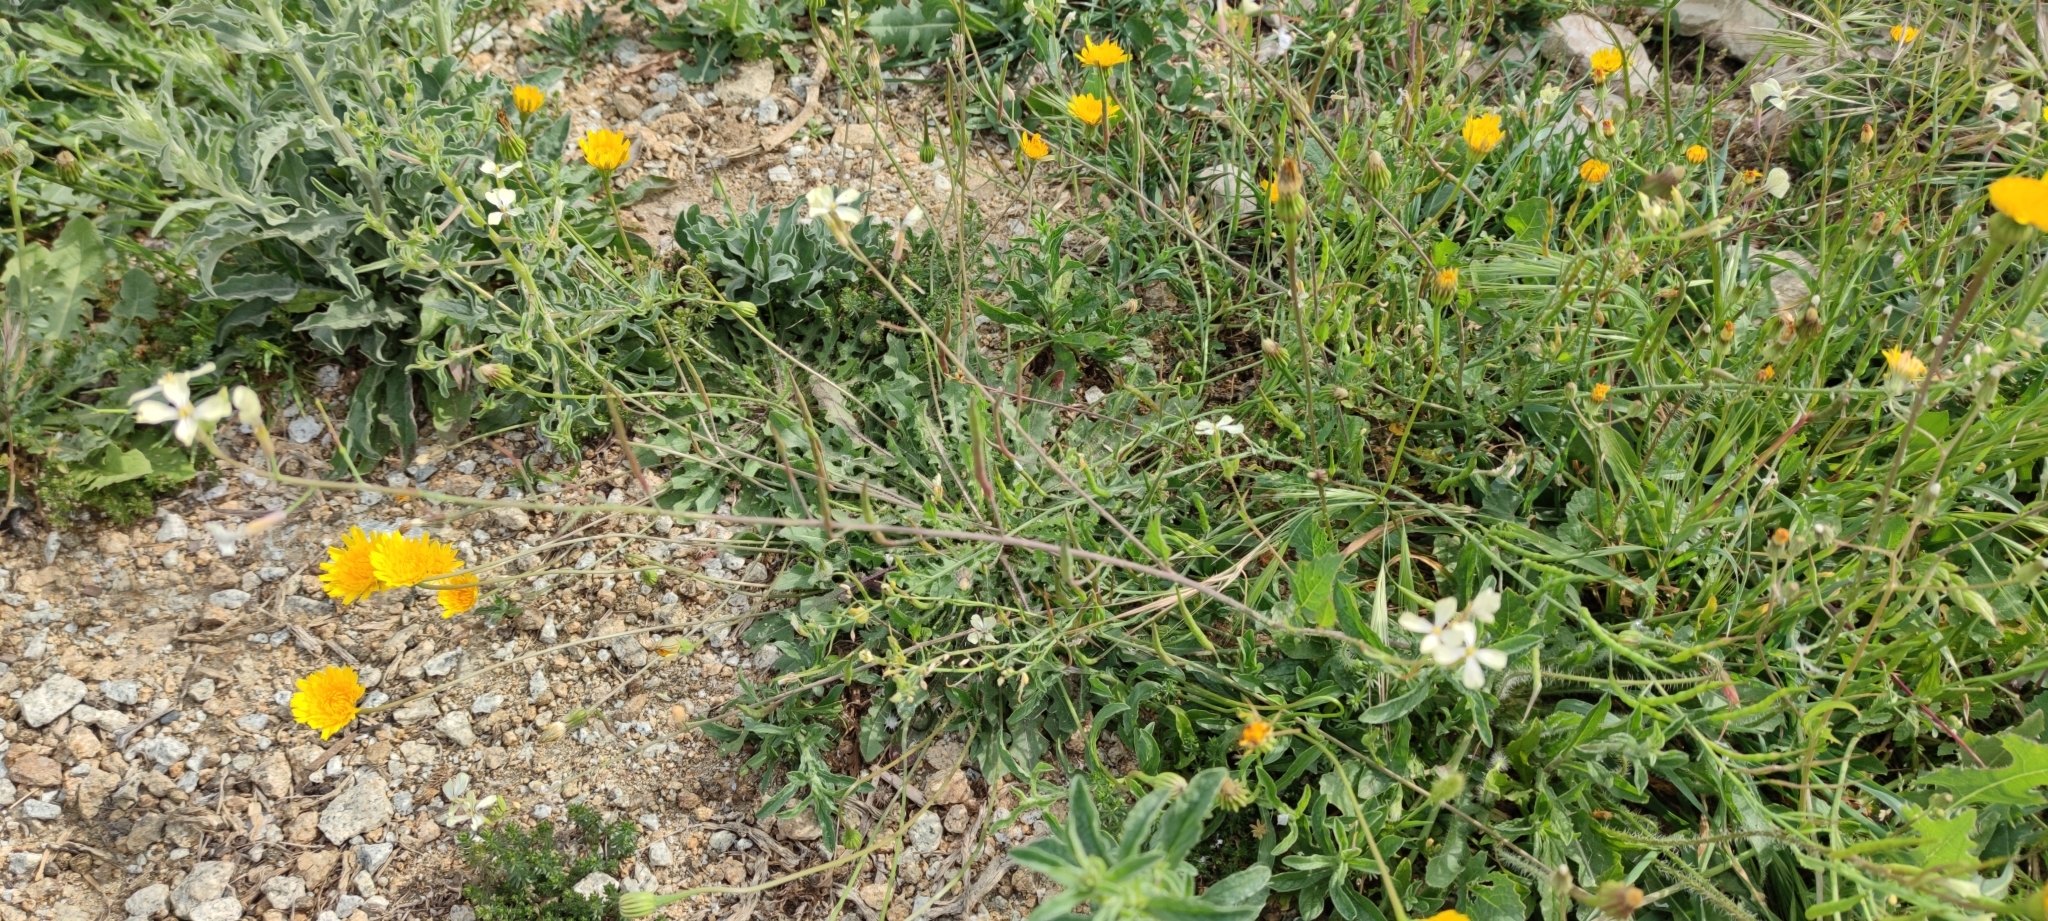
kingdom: Plantae
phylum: Tracheophyta
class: Magnoliopsida
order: Brassicales
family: Brassicaceae
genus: Raphanus
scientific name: Raphanus raphanistrum
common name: Wild radish
